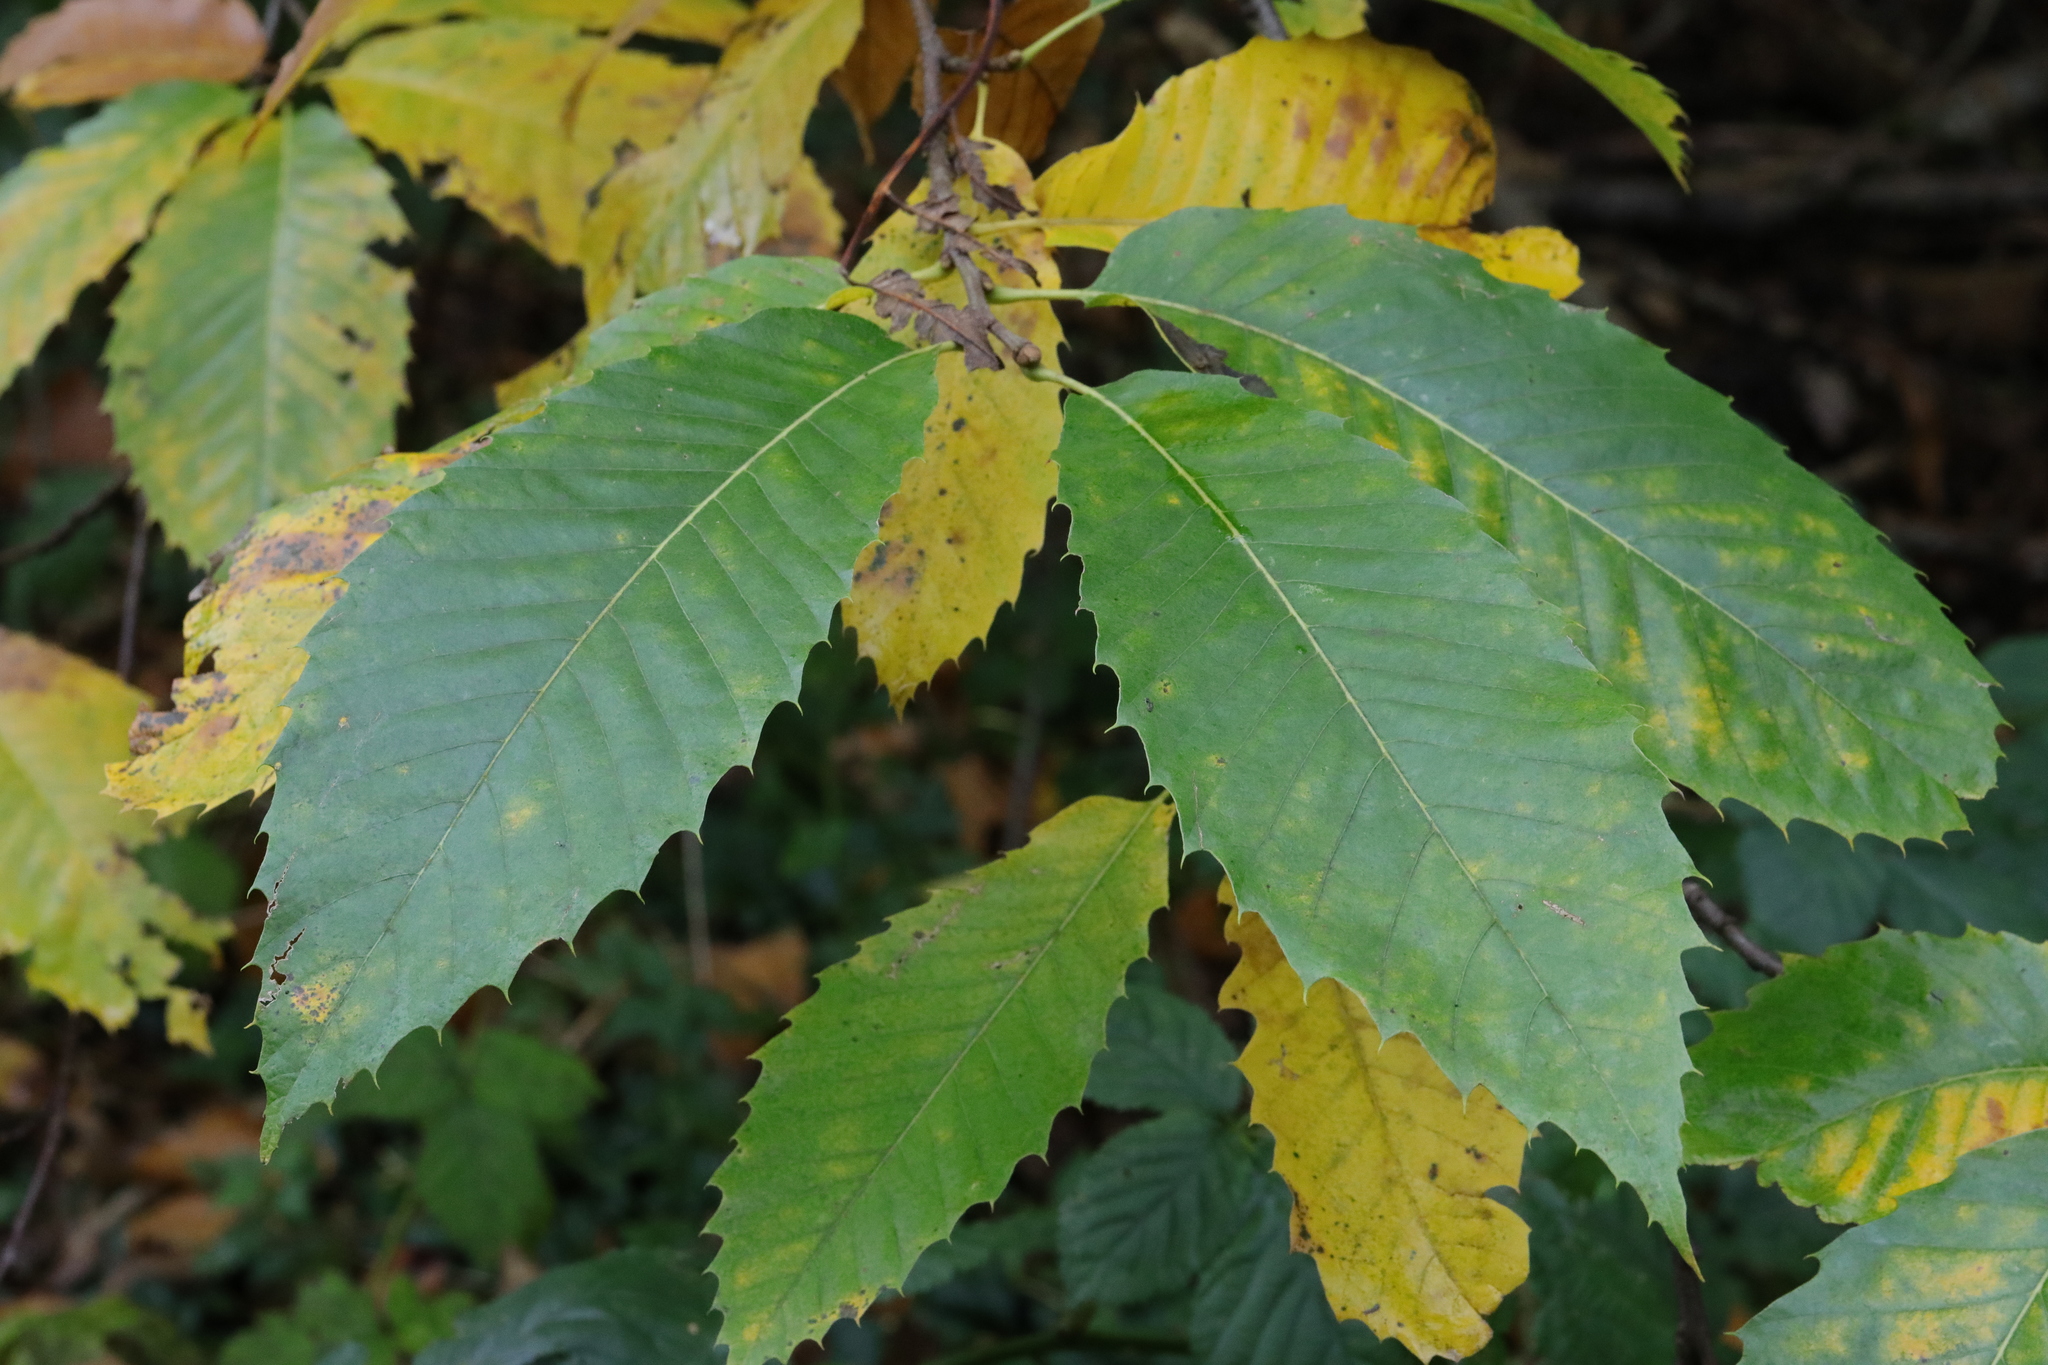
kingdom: Plantae
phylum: Tracheophyta
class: Magnoliopsida
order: Fagales
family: Fagaceae
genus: Castanea
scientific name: Castanea sativa
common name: Sweet chestnut
